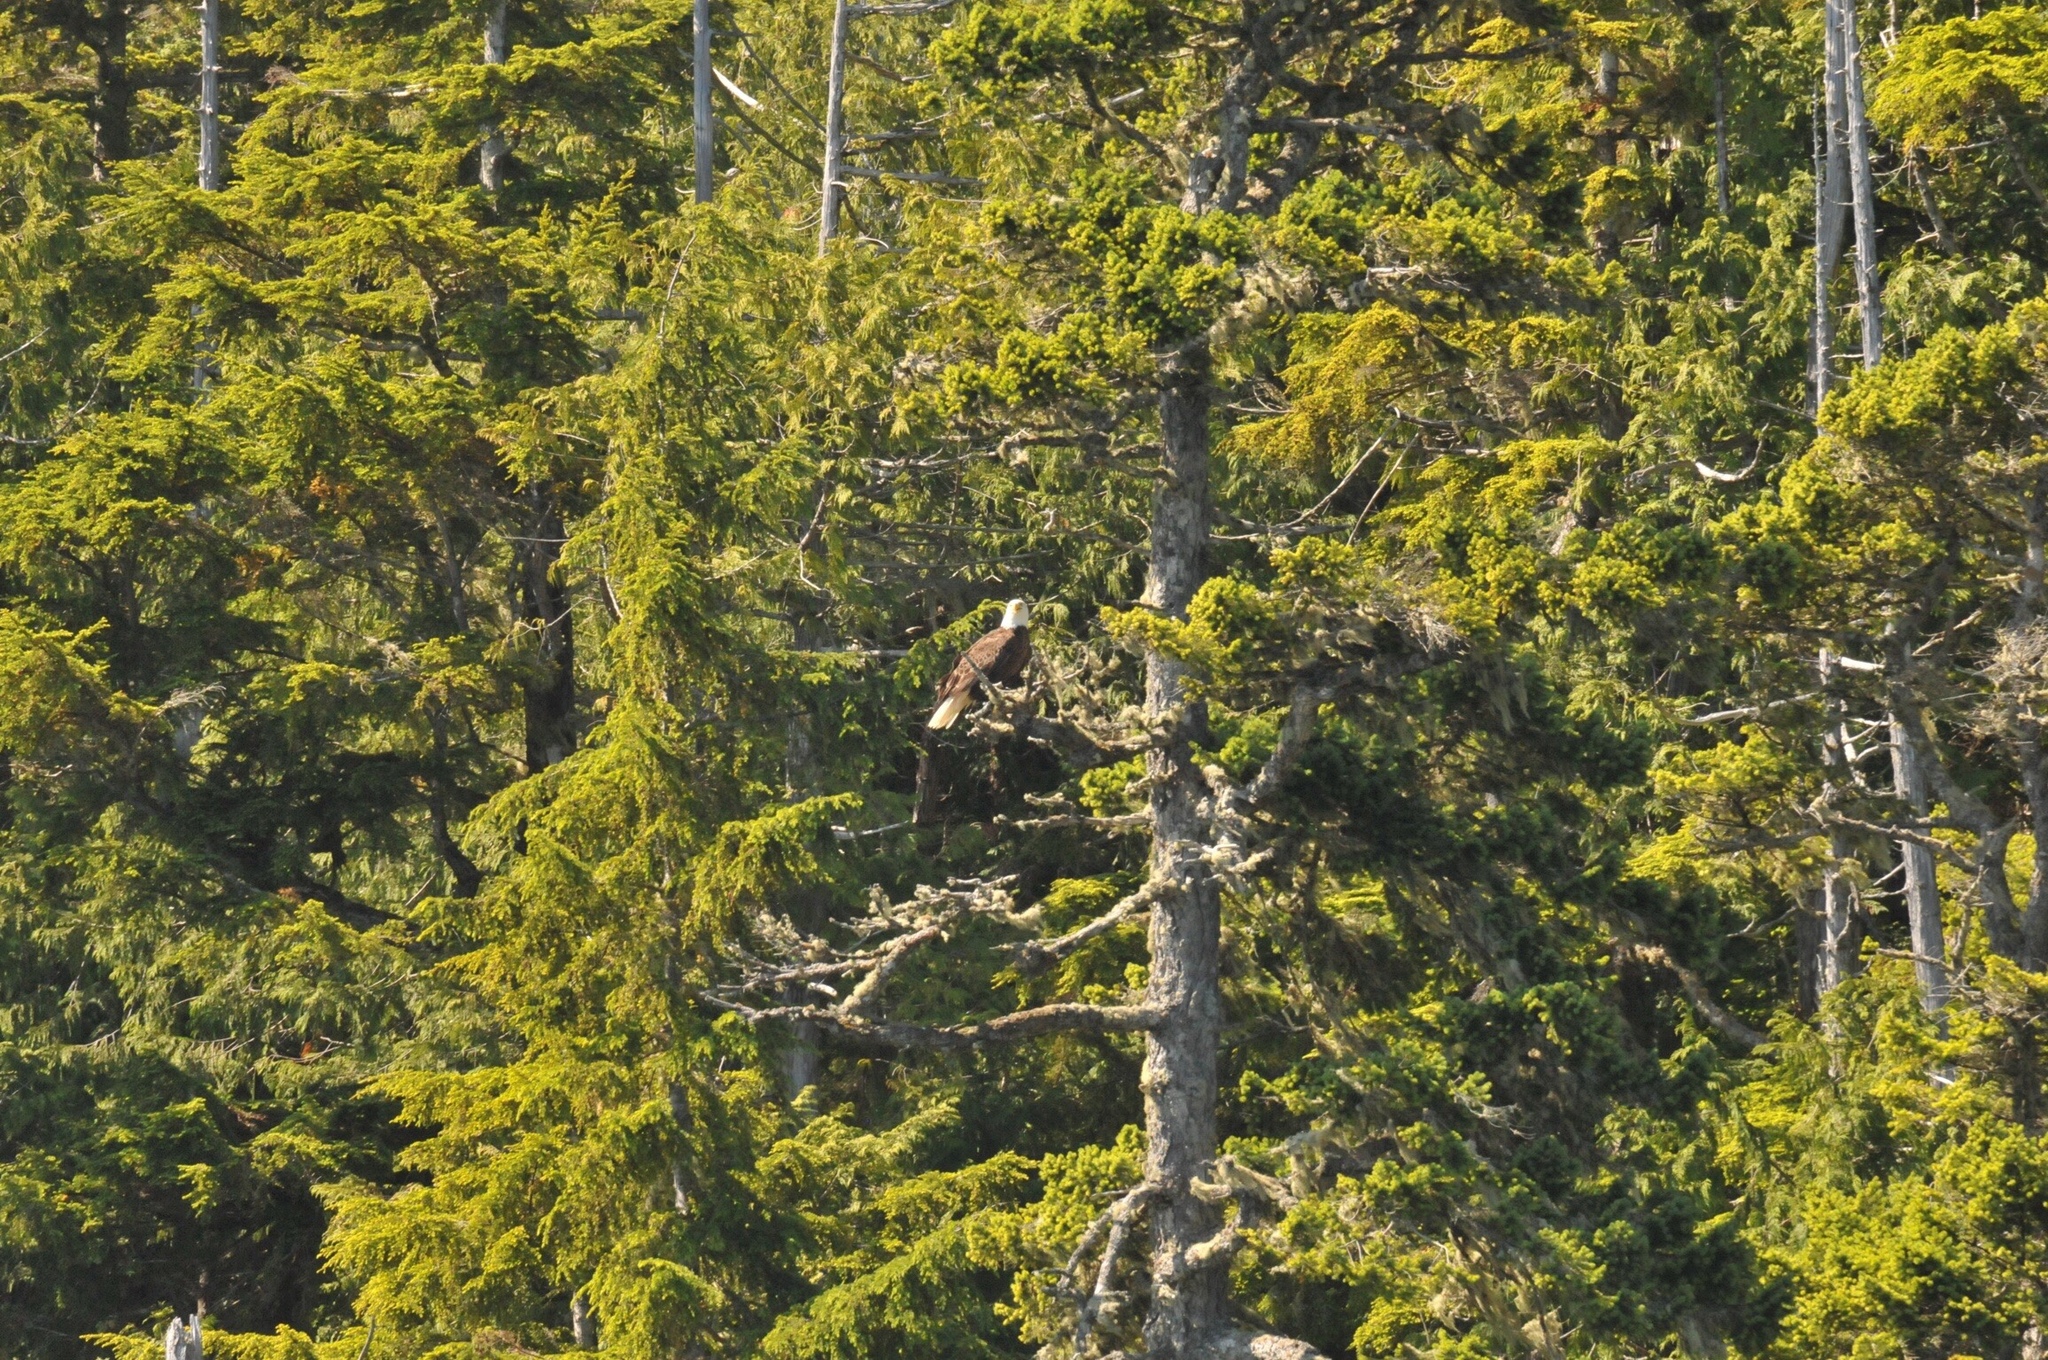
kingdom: Animalia
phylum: Chordata
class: Aves
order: Accipitriformes
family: Accipitridae
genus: Haliaeetus
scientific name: Haliaeetus leucocephalus
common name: Bald eagle
